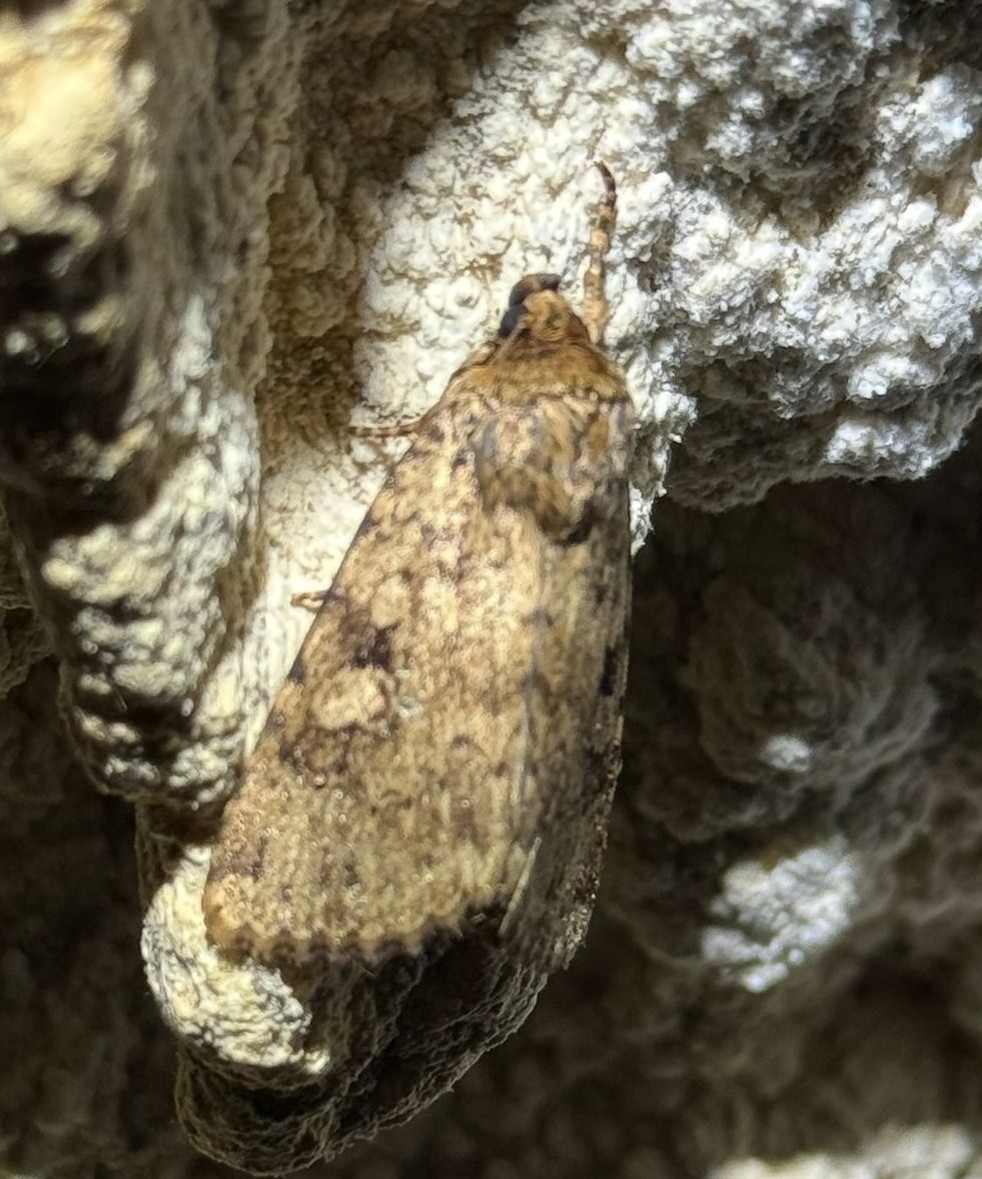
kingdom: Animalia
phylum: Arthropoda
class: Insecta
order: Lepidoptera
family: Noctuidae
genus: Amphipyra
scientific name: Amphipyra effusa
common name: Landguard ochre
